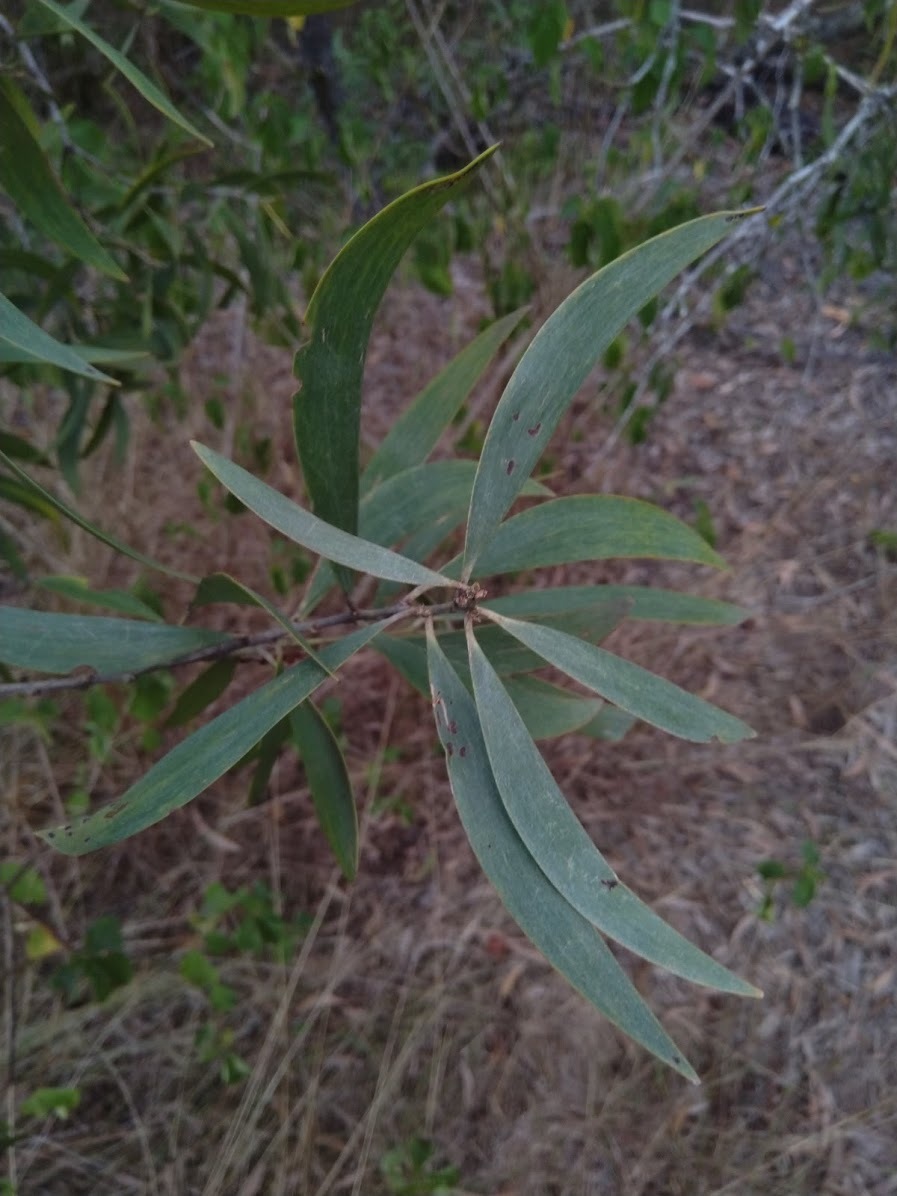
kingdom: Plantae
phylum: Tracheophyta
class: Magnoliopsida
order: Fabales
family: Fabaceae
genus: Acacia
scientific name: Acacia disparrima
